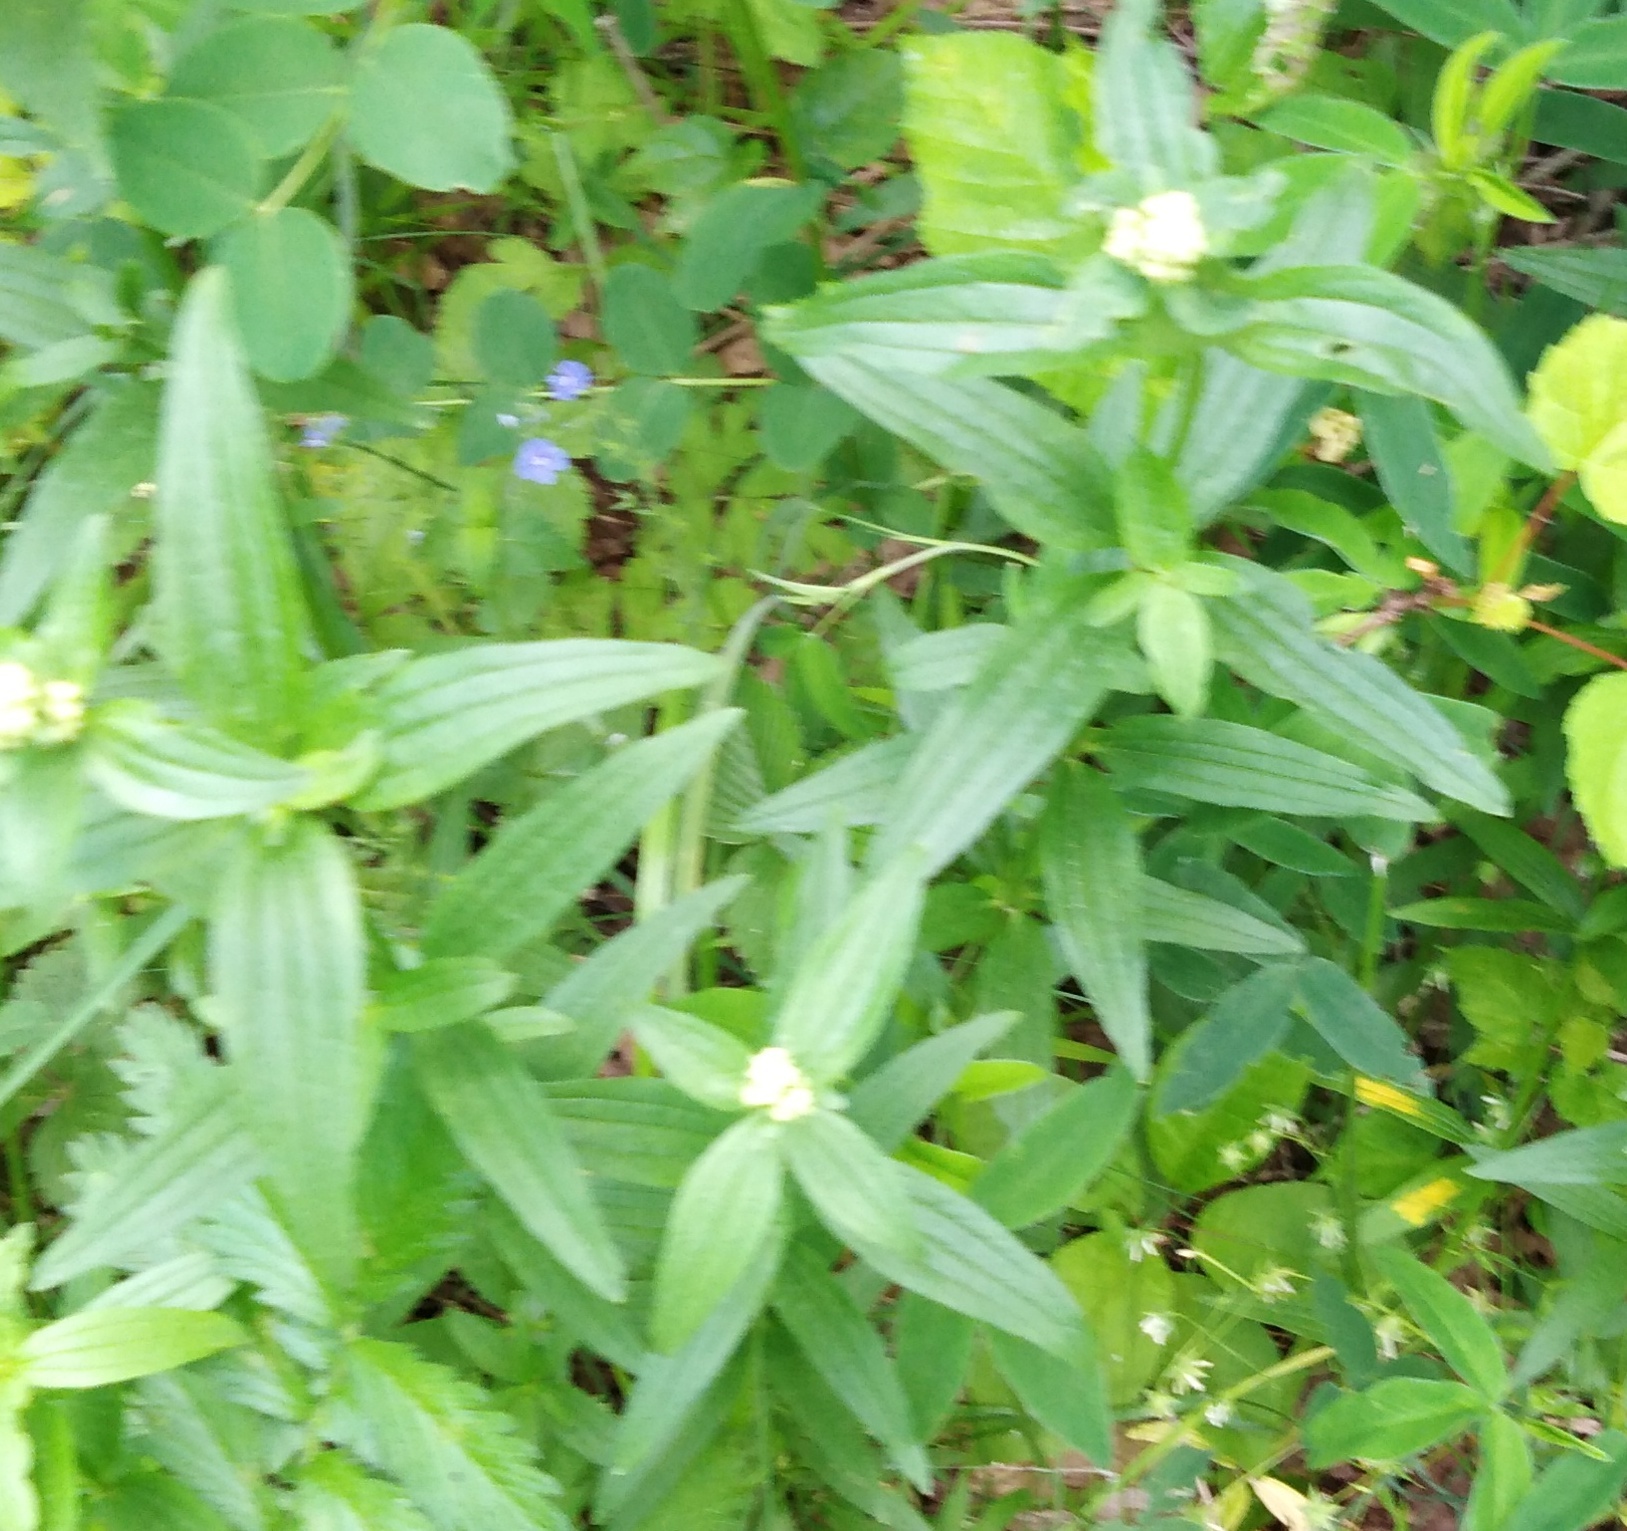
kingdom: Plantae
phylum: Tracheophyta
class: Magnoliopsida
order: Gentianales
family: Rubiaceae
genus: Galium
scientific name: Galium rubioides
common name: European bedstraw
